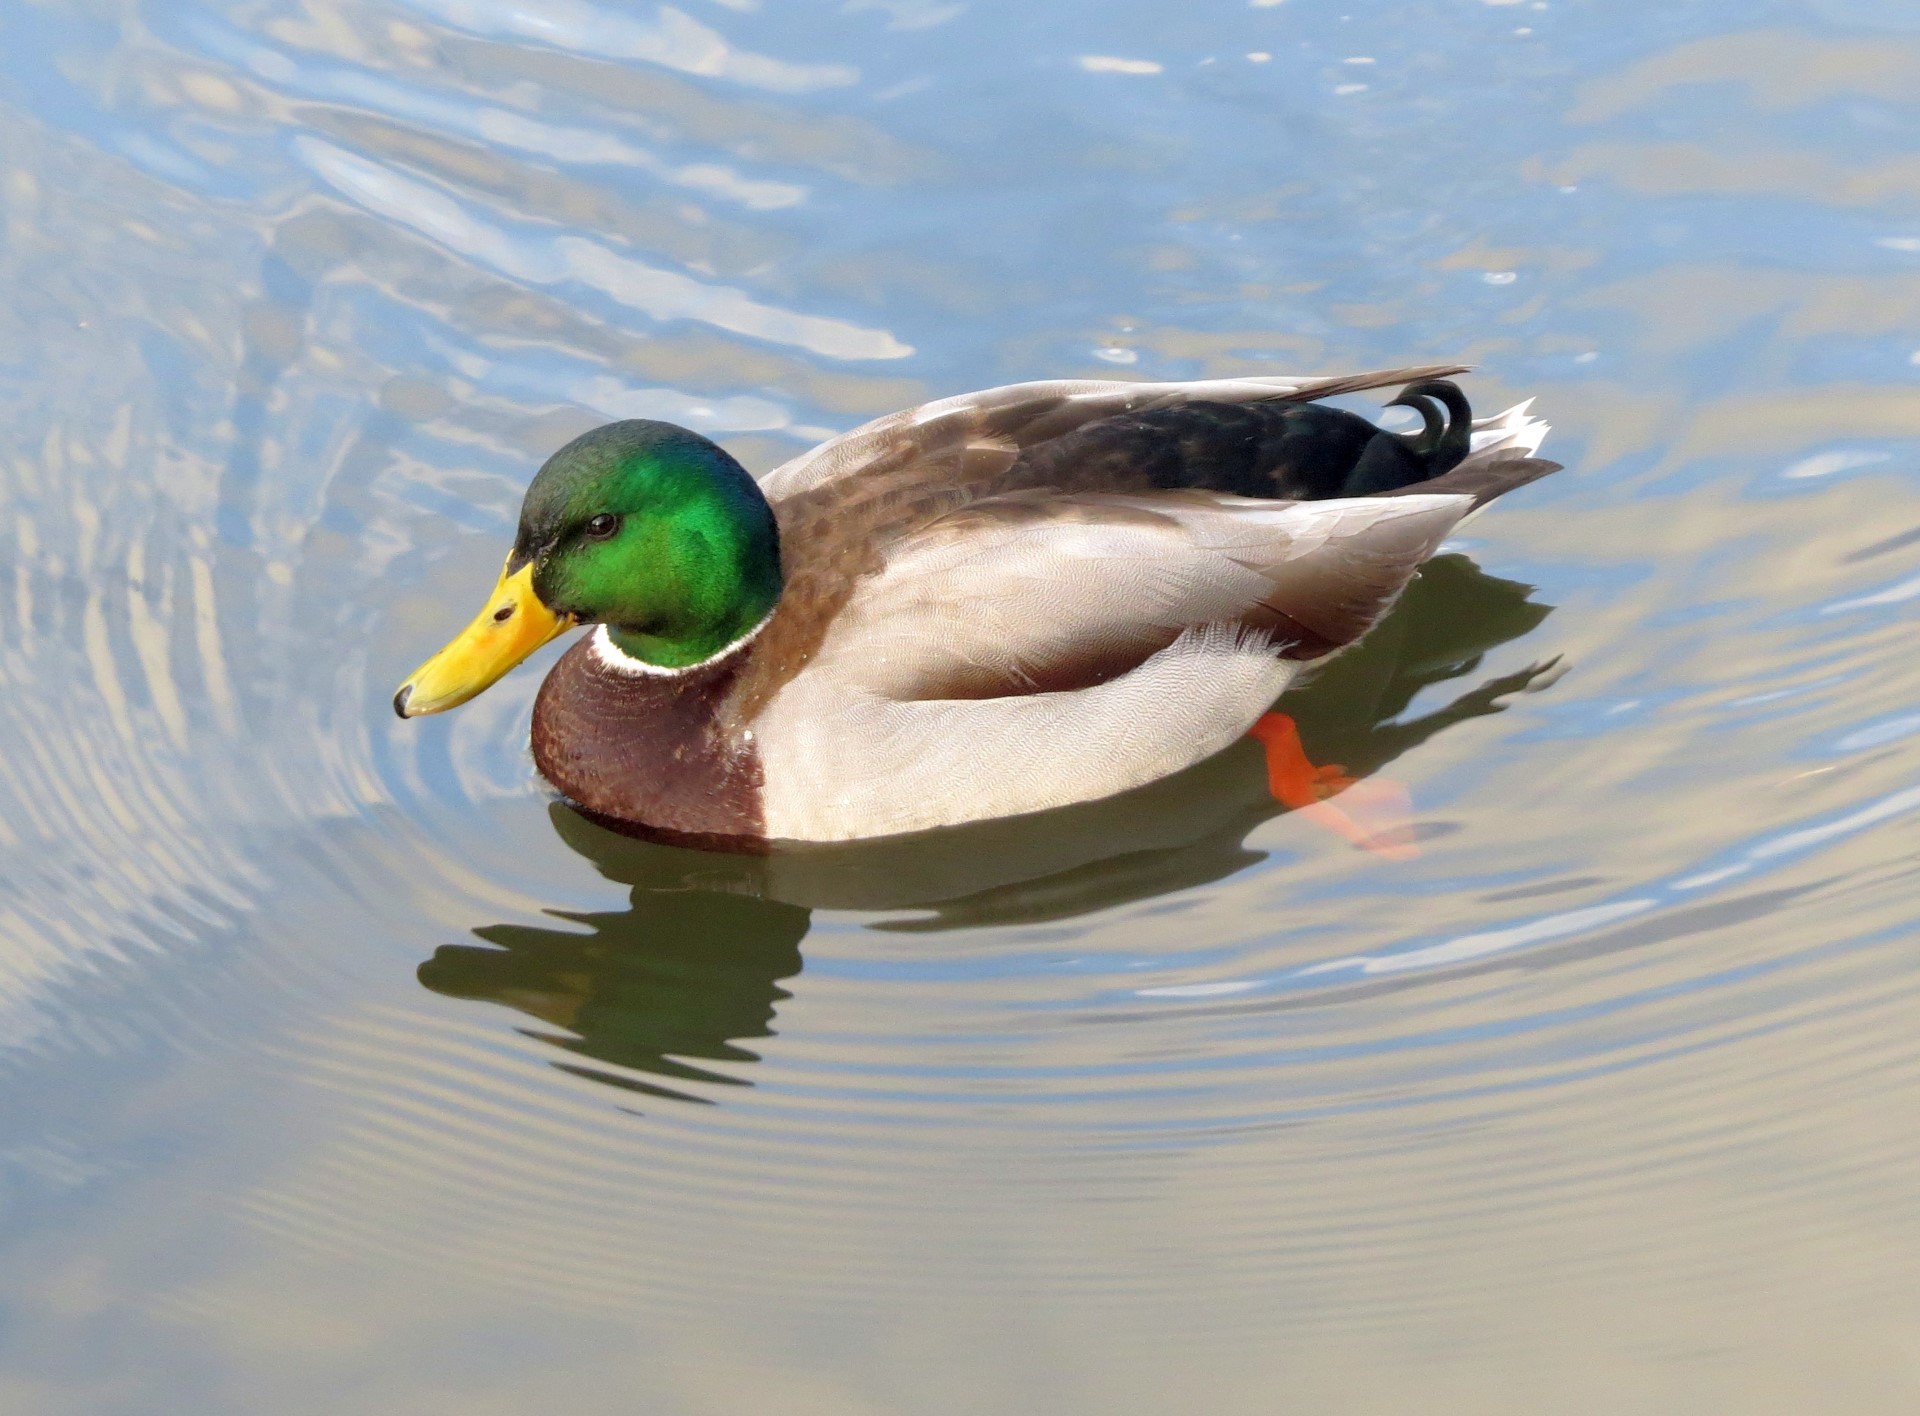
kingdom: Animalia
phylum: Chordata
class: Aves
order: Anseriformes
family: Anatidae
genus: Anas
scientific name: Anas platyrhynchos
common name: Mallard
